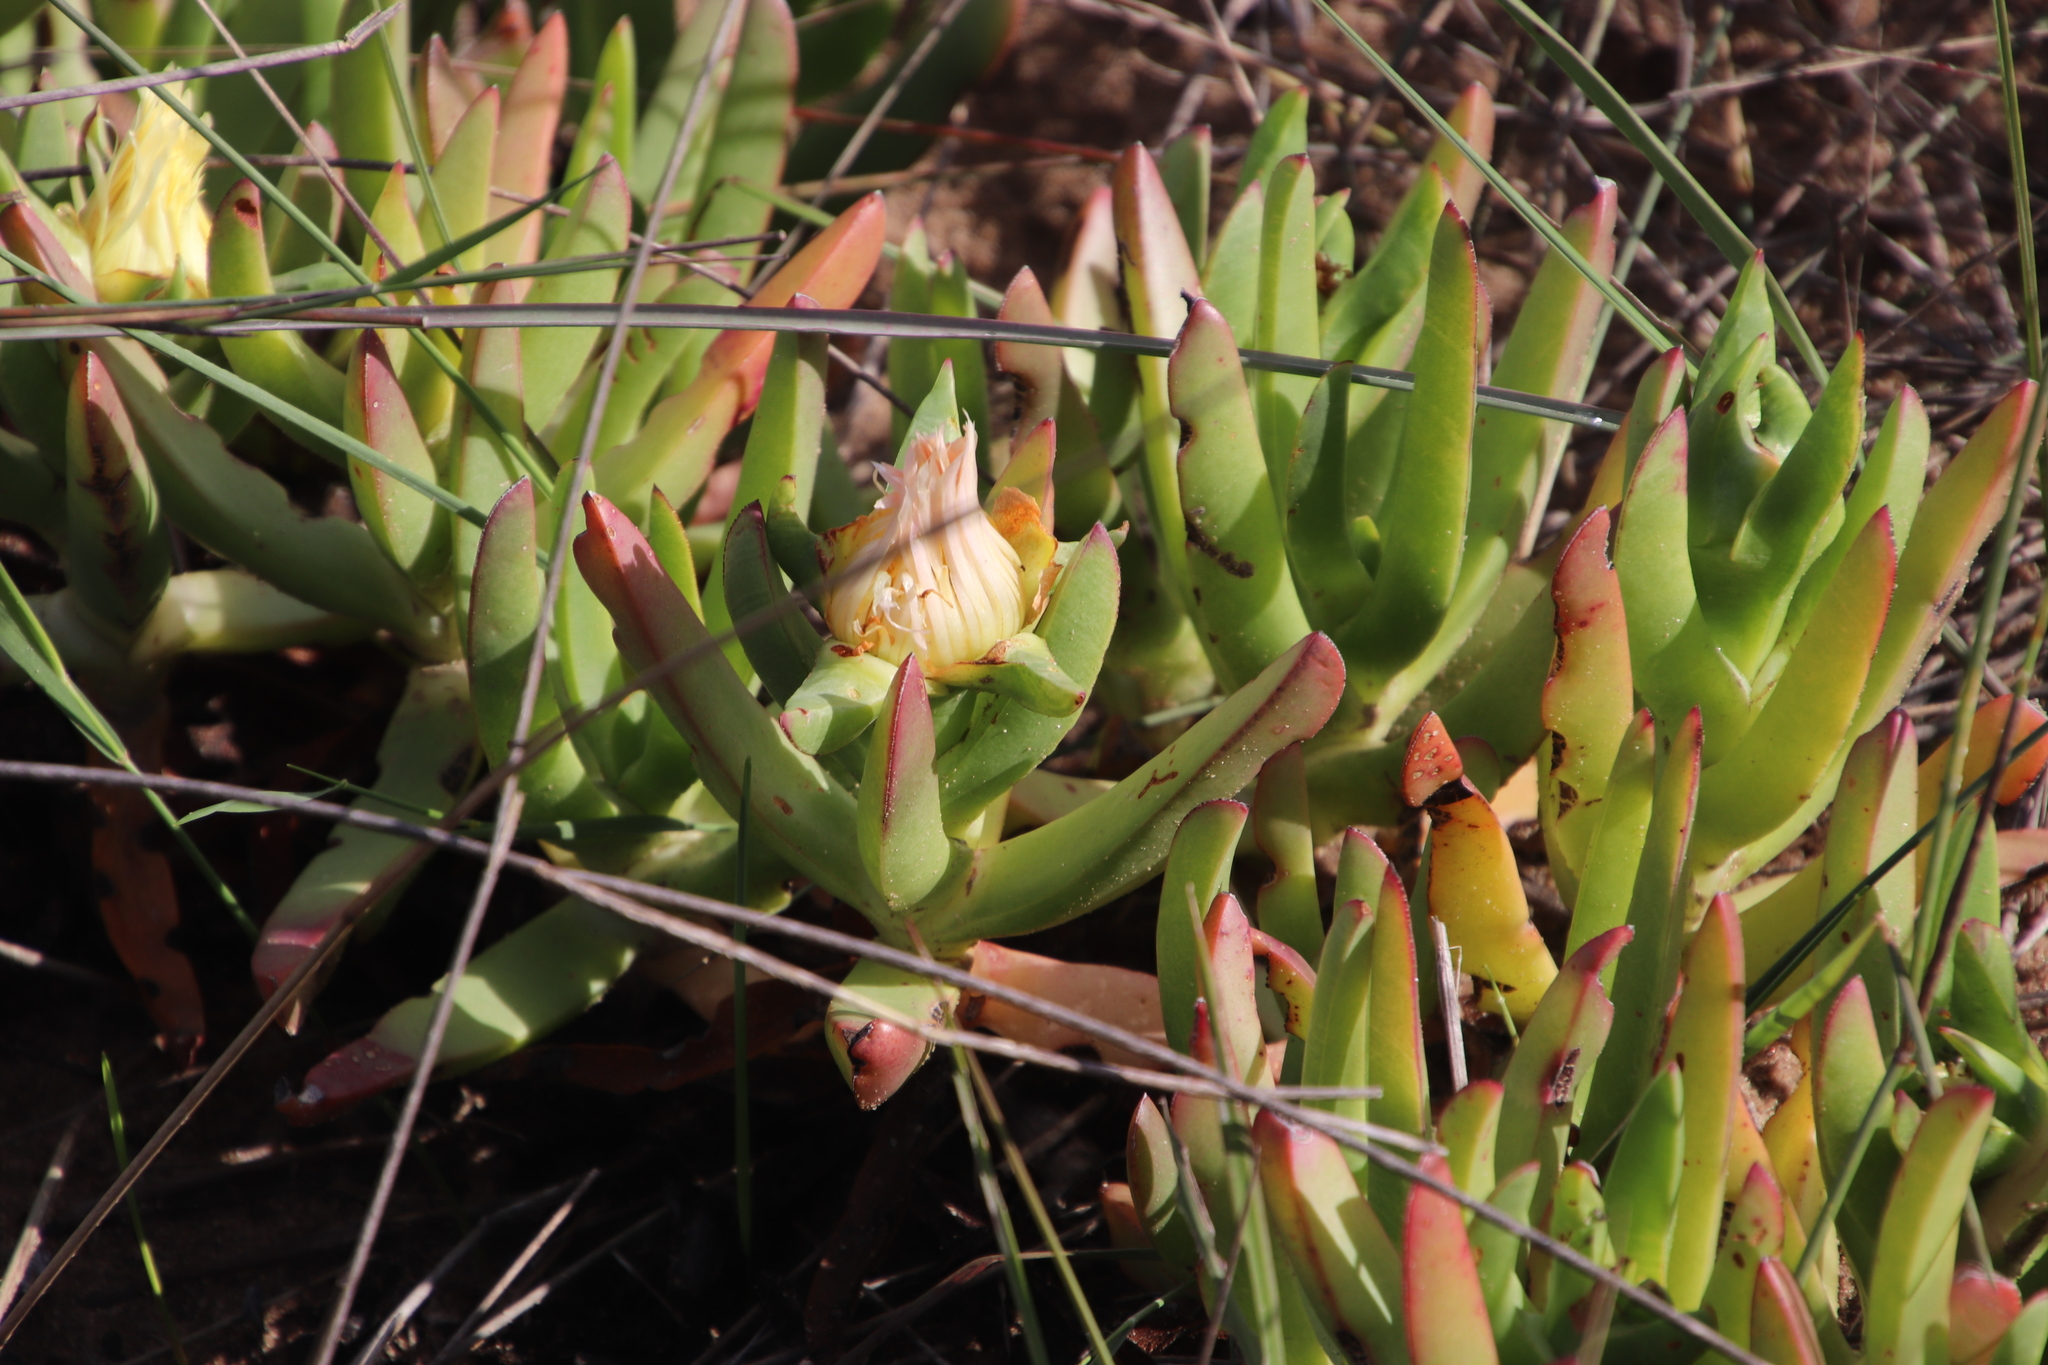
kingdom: Plantae
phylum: Tracheophyta
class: Magnoliopsida
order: Caryophyllales
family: Aizoaceae
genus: Carpobrotus
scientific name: Carpobrotus edulis
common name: Hottentot-fig
